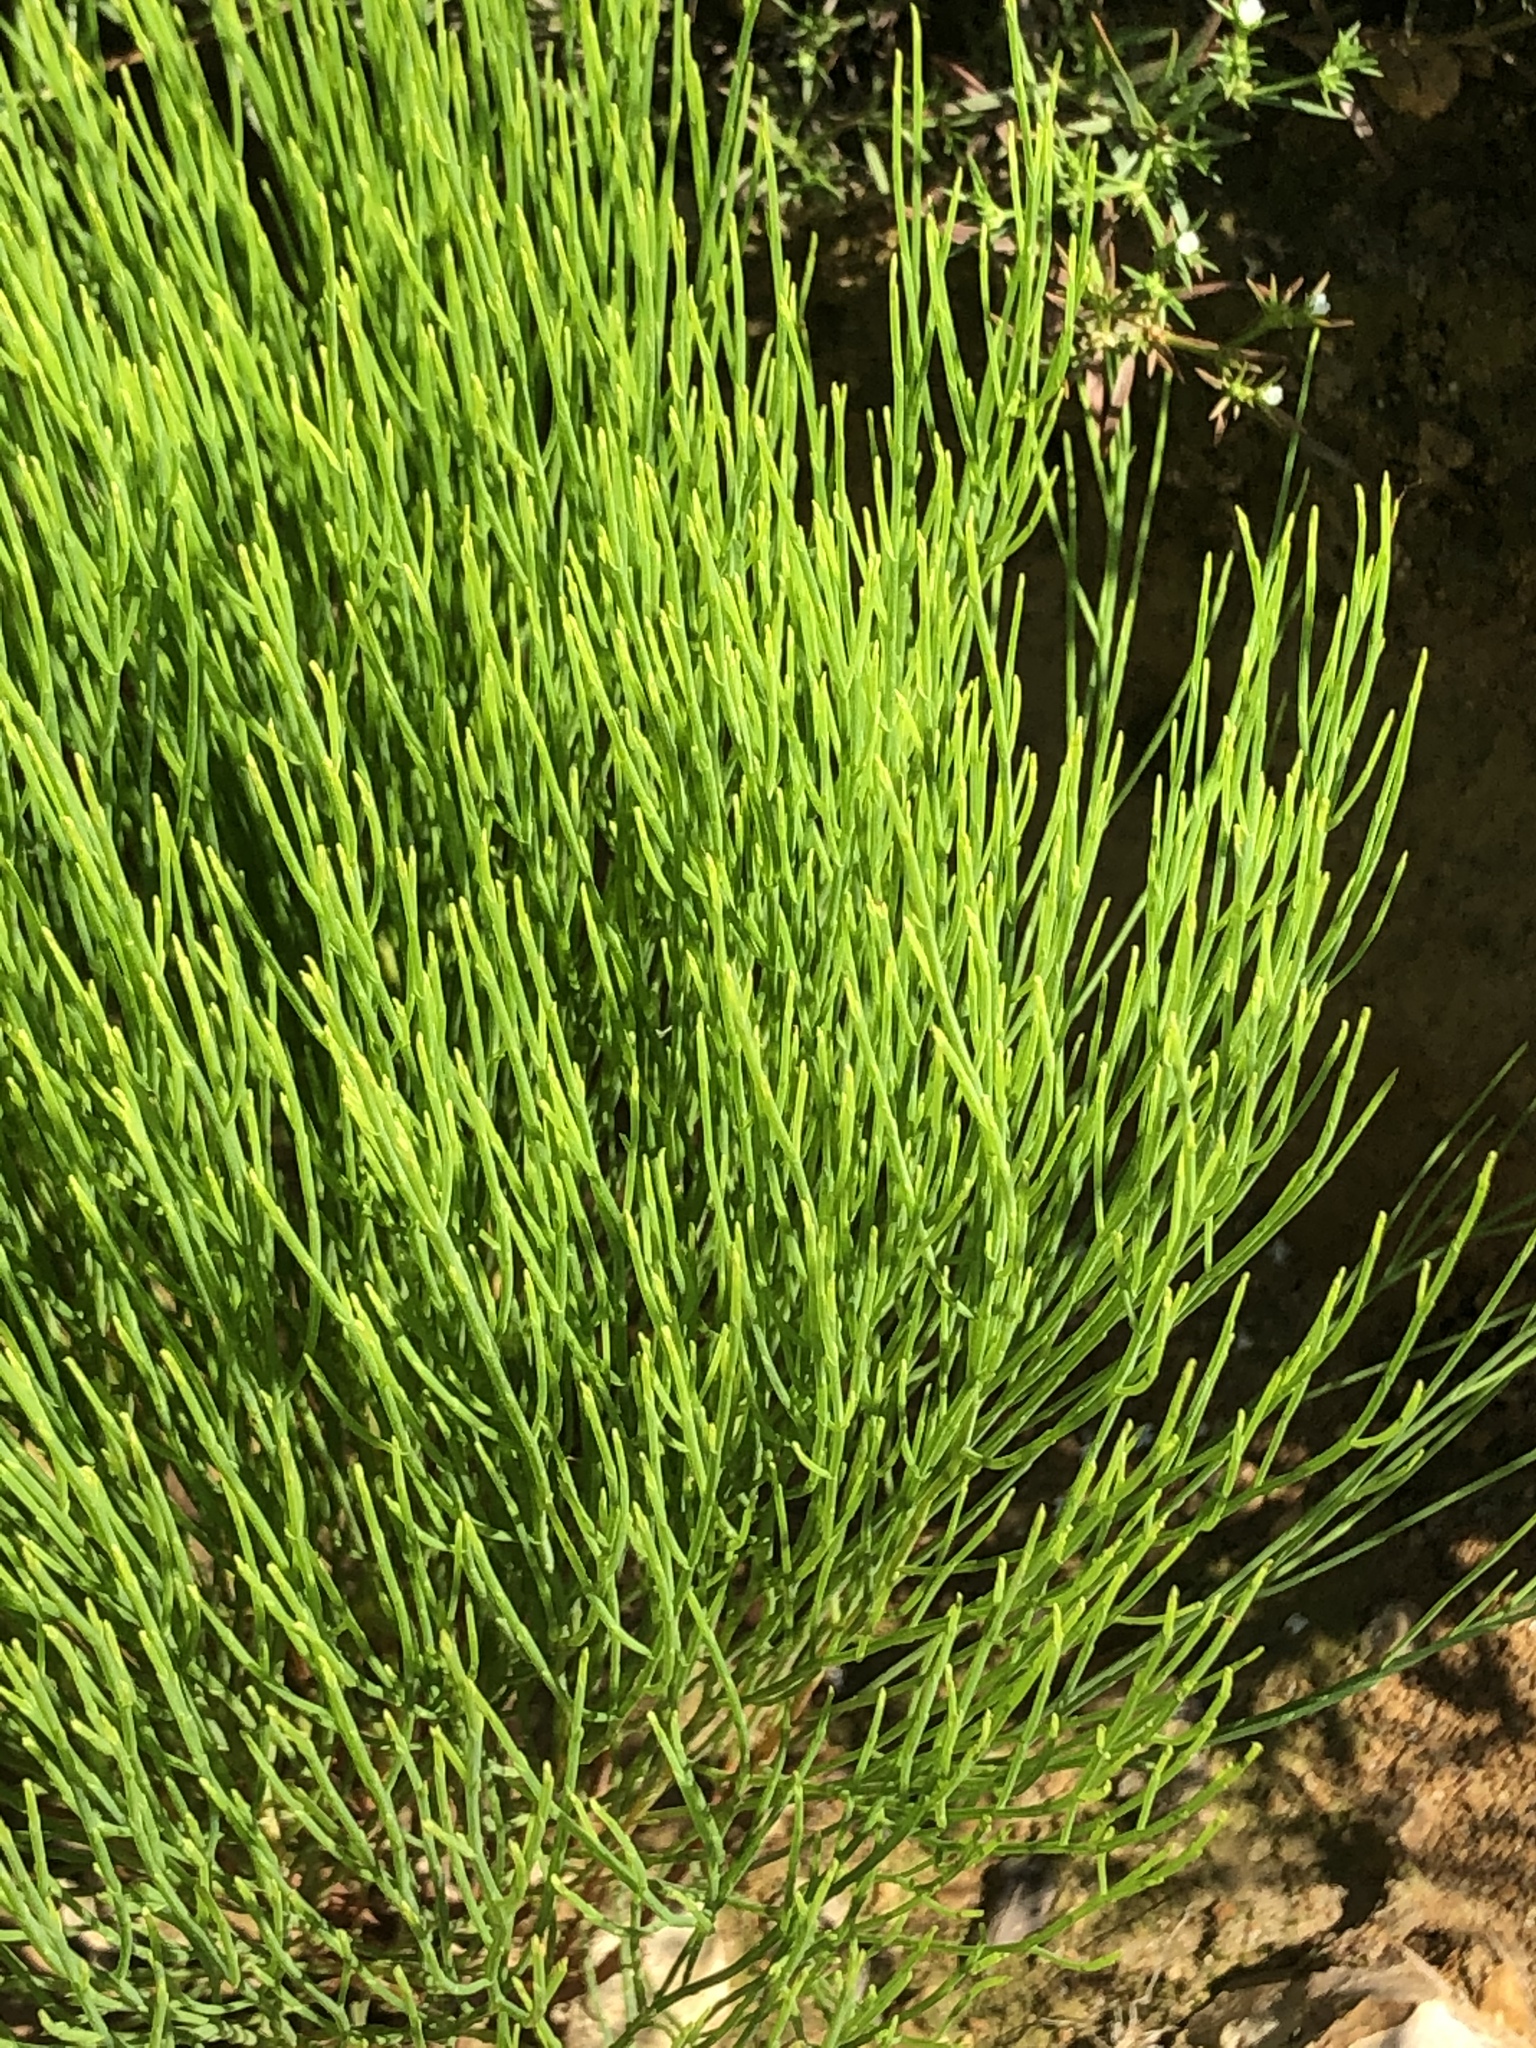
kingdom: Plantae
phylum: Tracheophyta
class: Magnoliopsida
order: Malpighiales
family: Hypericaceae
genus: Hypericum
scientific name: Hypericum gentianoides
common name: Gentian-leaved st. john's-wort
